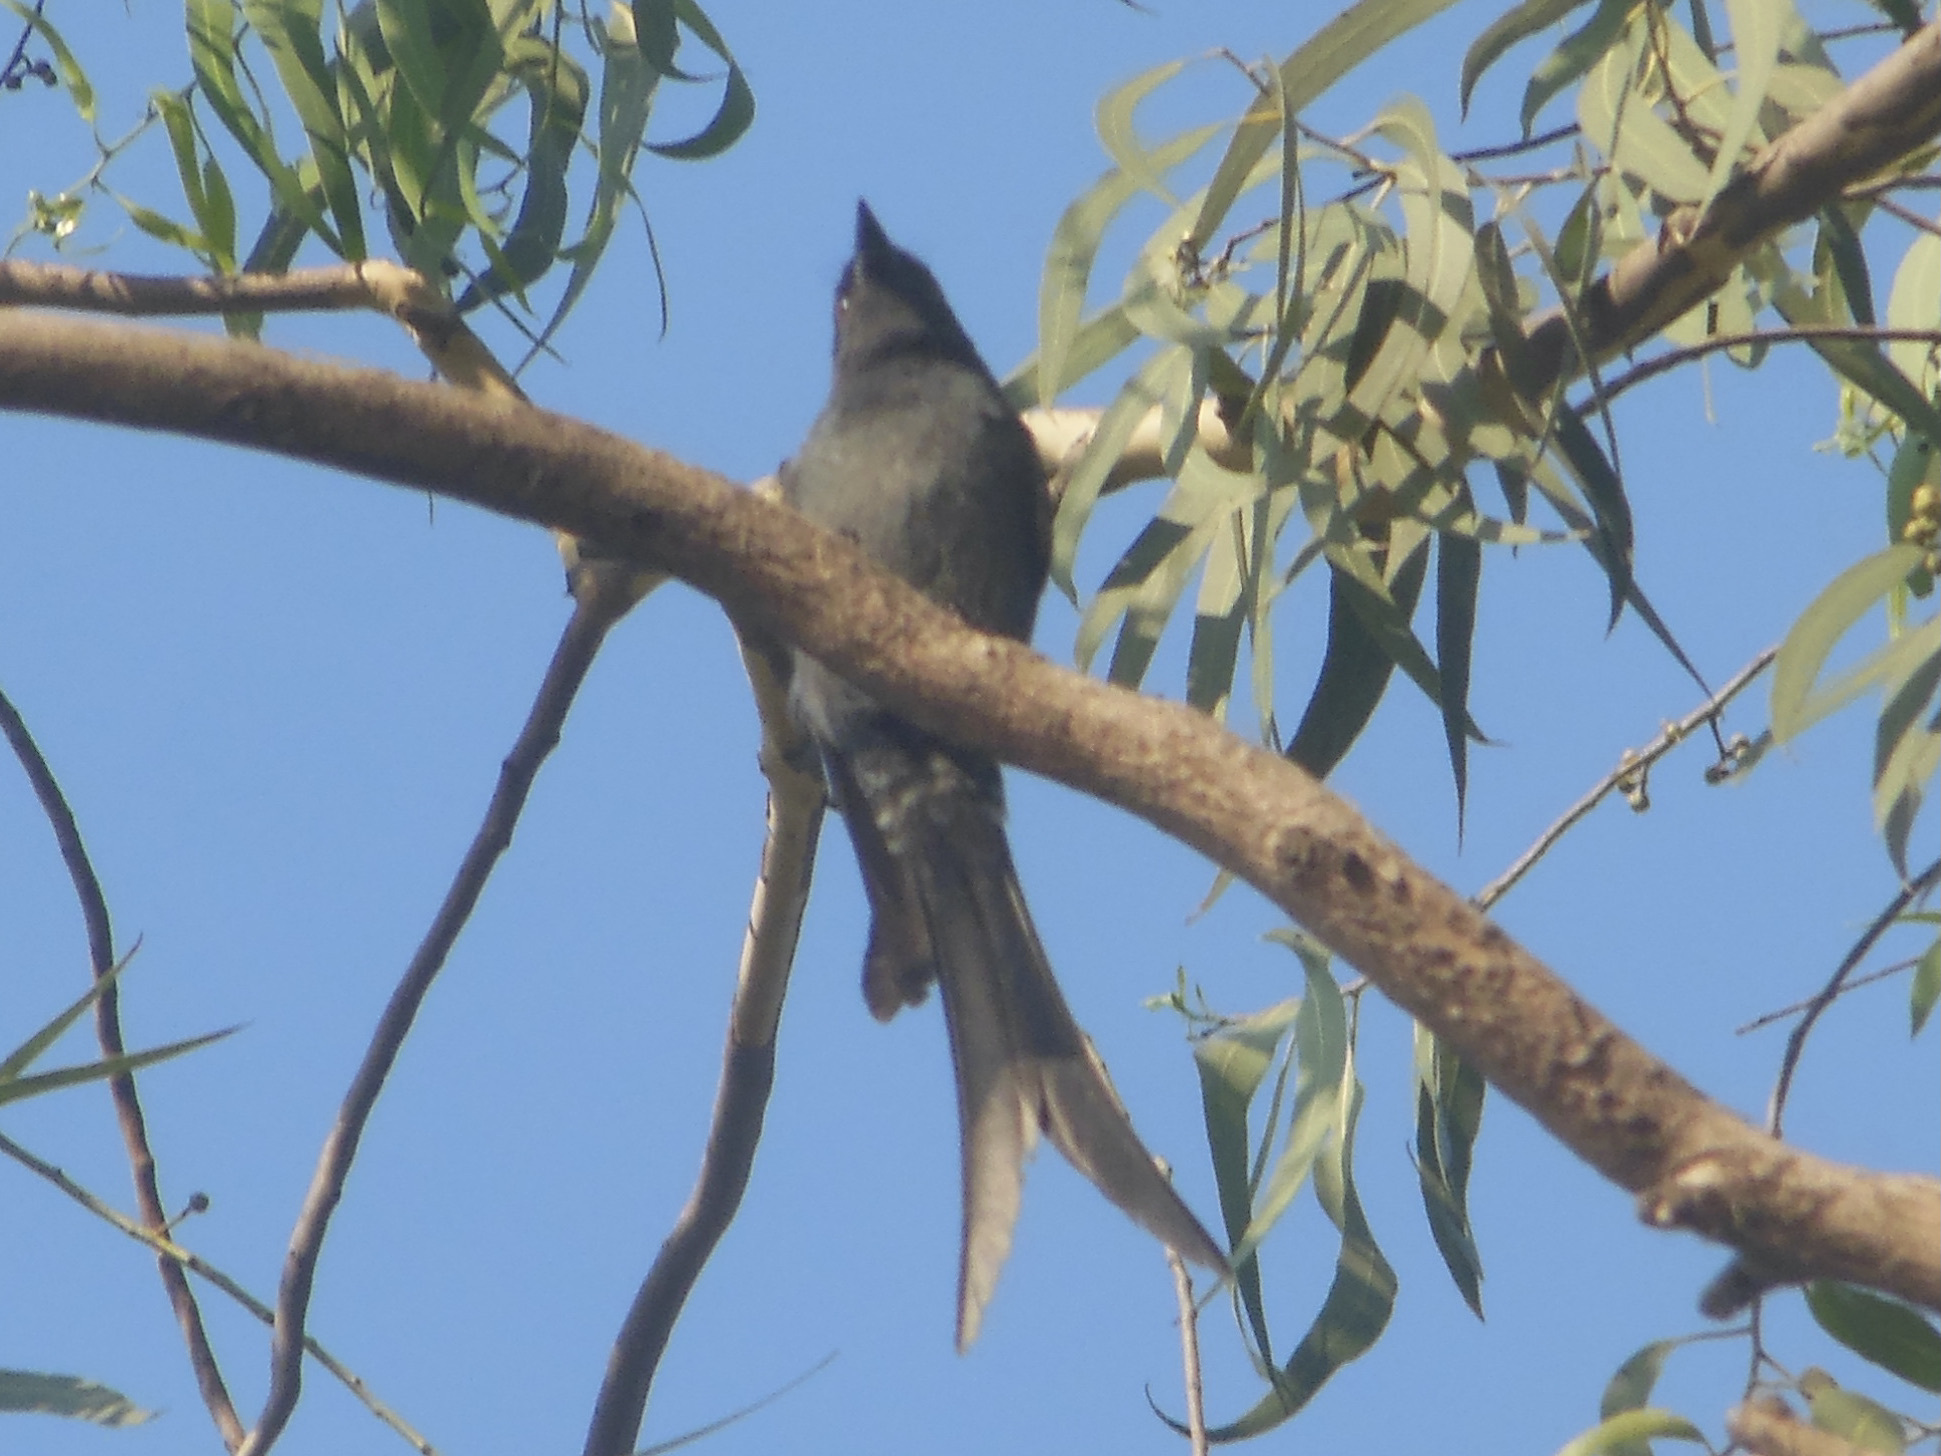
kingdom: Animalia
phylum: Chordata
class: Aves
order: Passeriformes
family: Dicruridae
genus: Dicrurus
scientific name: Dicrurus leucophaeus
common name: Ashy drongo
